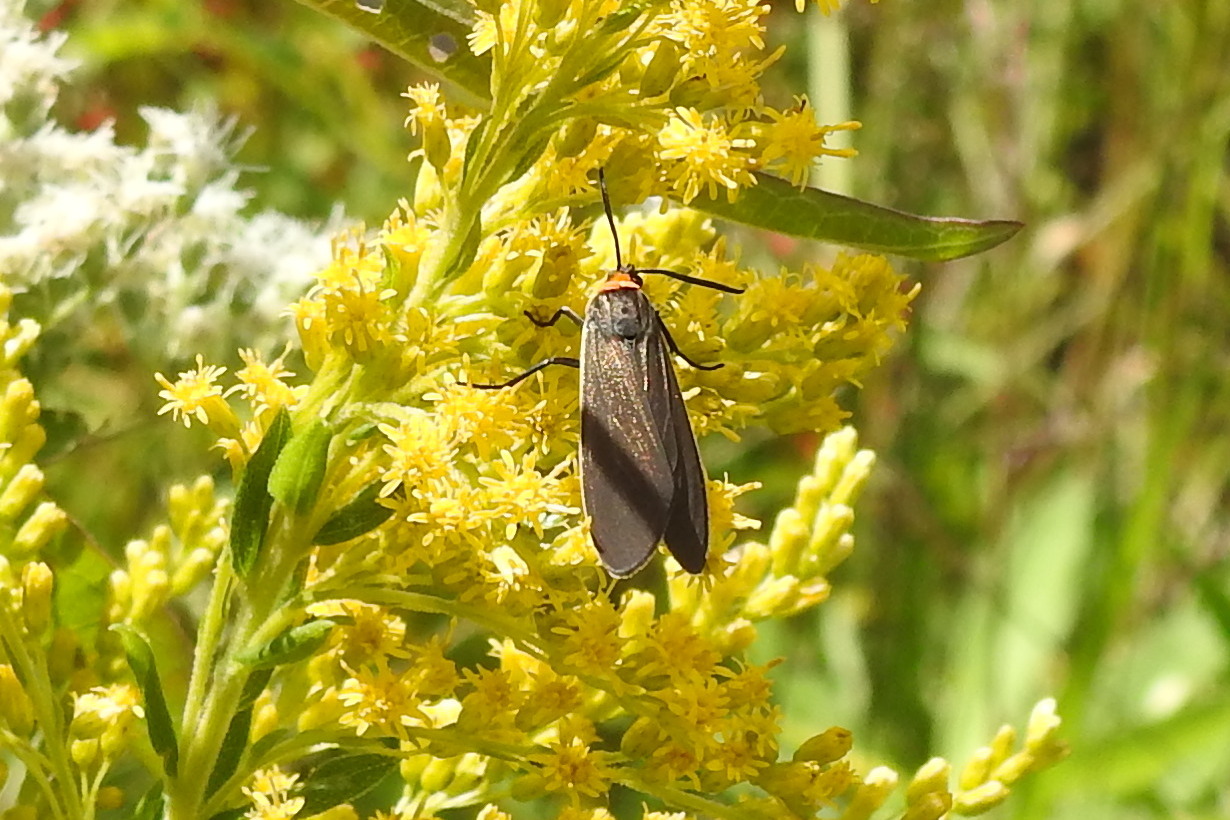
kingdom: Animalia
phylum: Arthropoda
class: Insecta
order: Lepidoptera
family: Erebidae
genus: Cisseps
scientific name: Cisseps fulvicollis
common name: Yellow-collared scape moth
